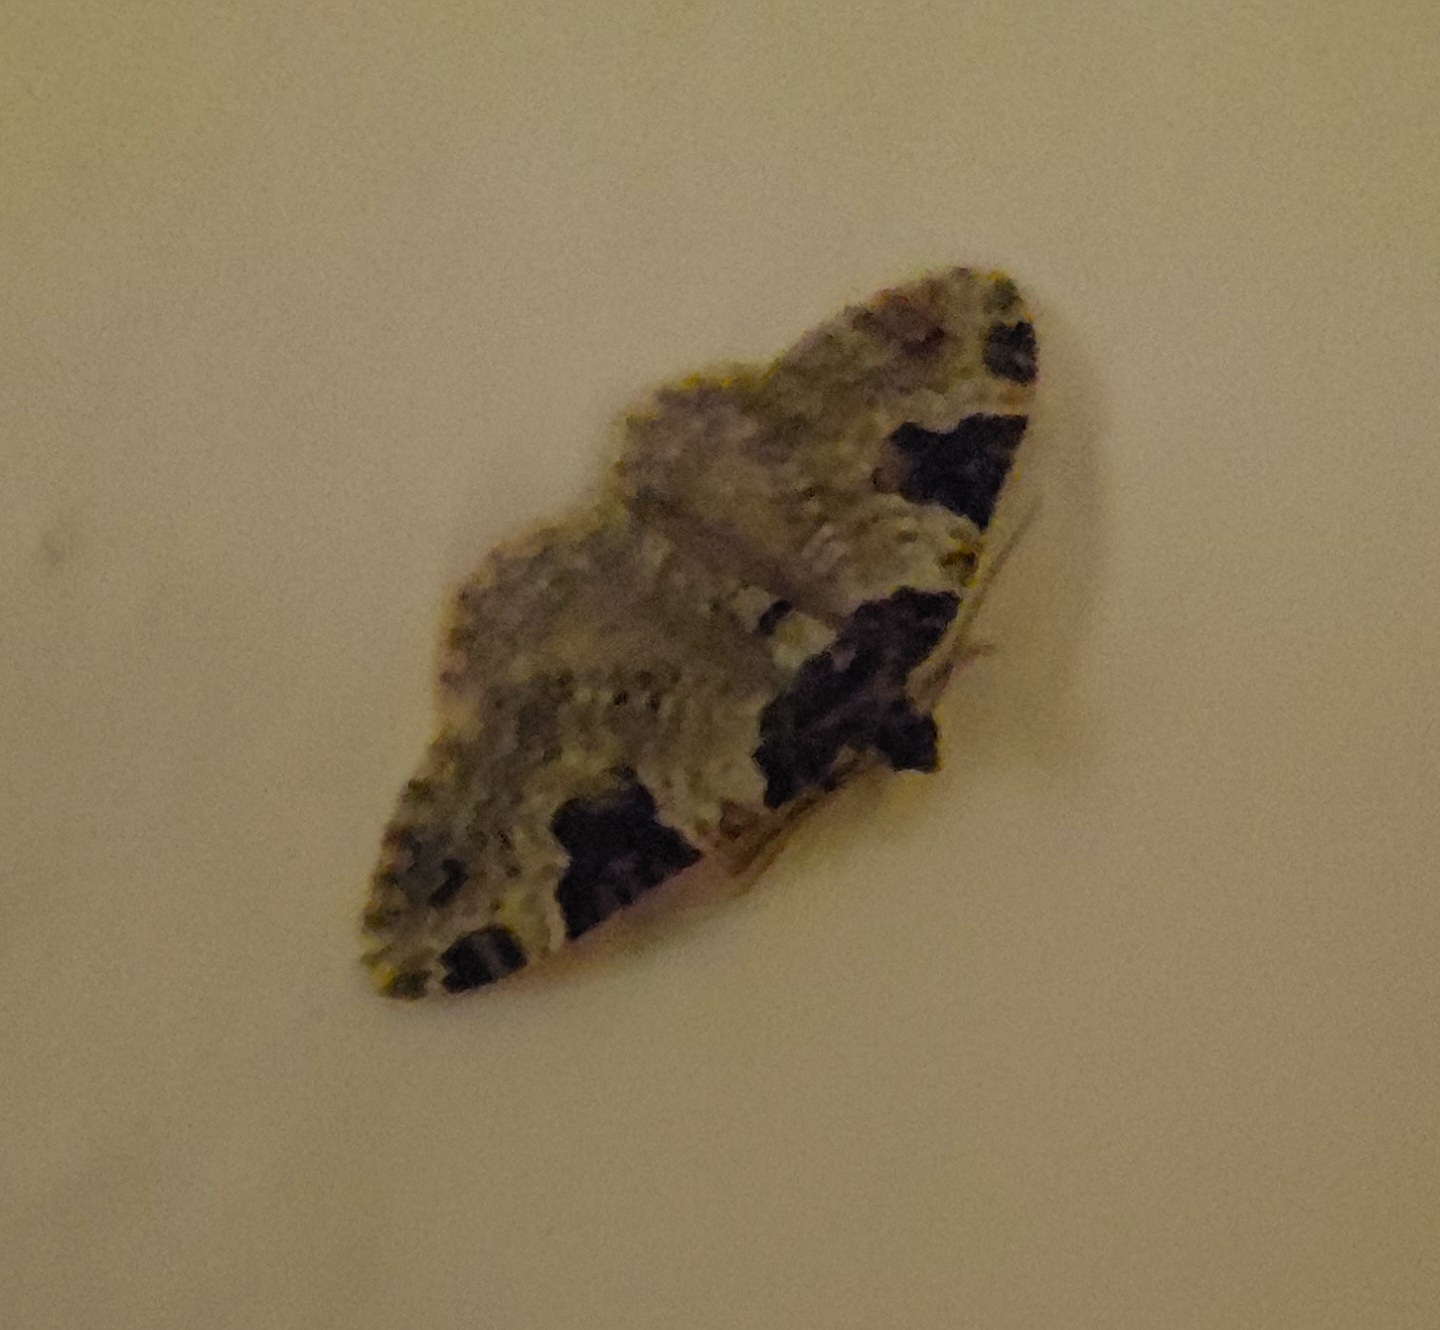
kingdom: Animalia
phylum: Arthropoda
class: Insecta
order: Lepidoptera
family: Geometridae
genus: Xanthorhoe
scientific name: Xanthorhoe fluctuata
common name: Garden carpet
